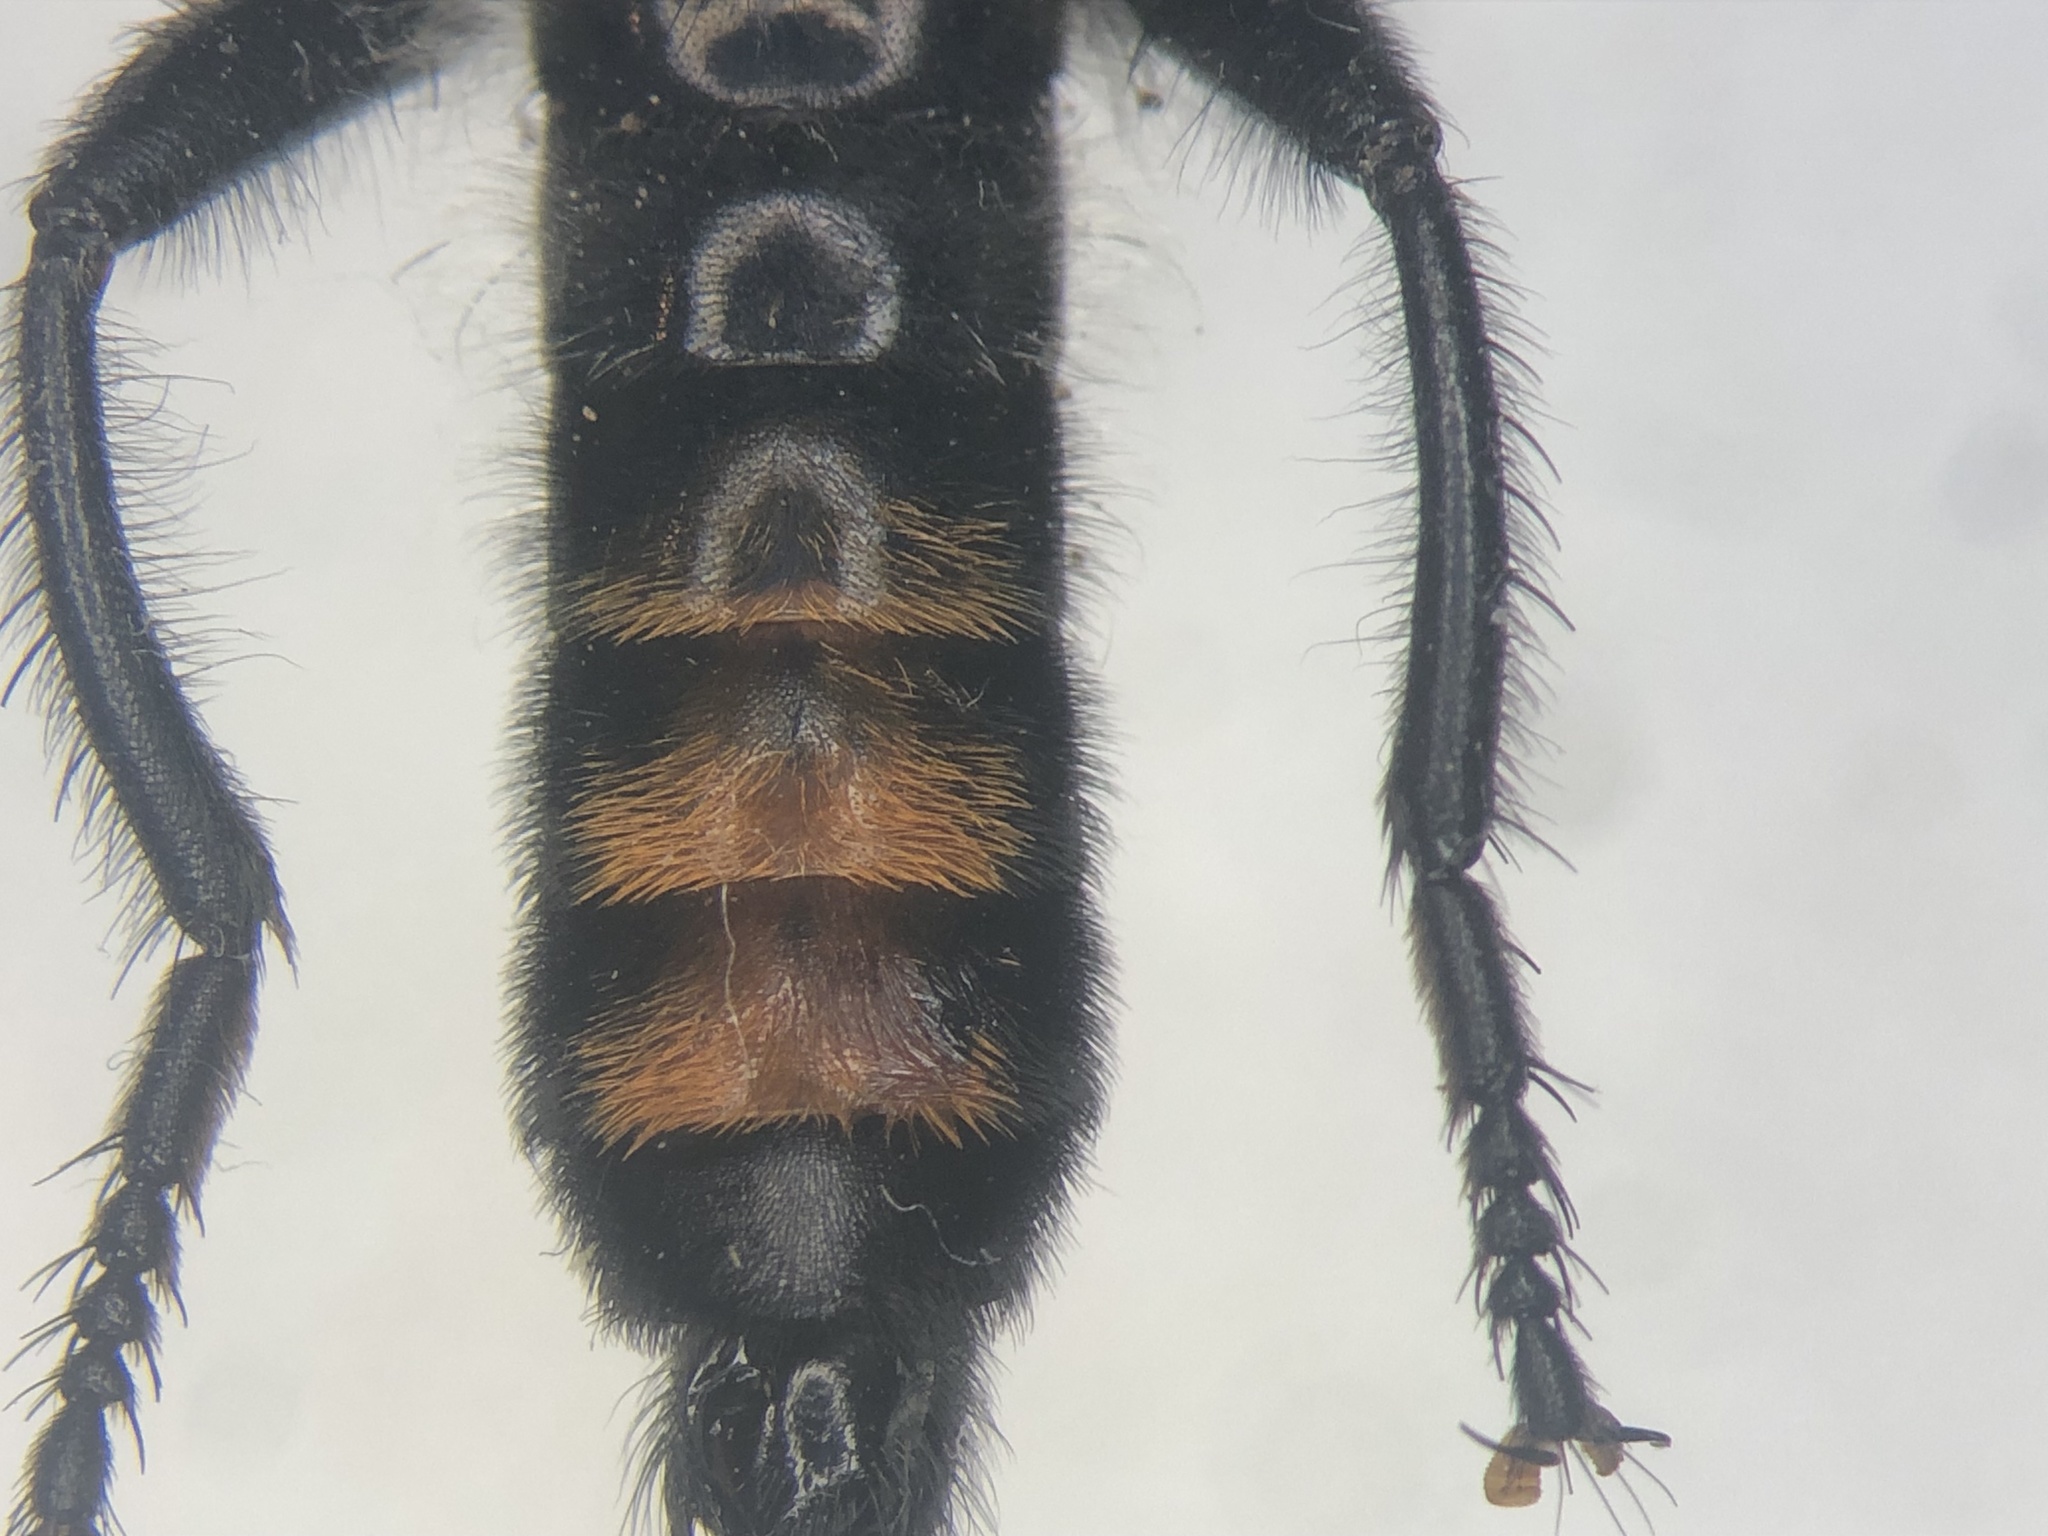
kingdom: Animalia
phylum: Arthropoda
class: Insecta
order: Diptera
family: Asilidae
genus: Laphria
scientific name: Laphria gilva
